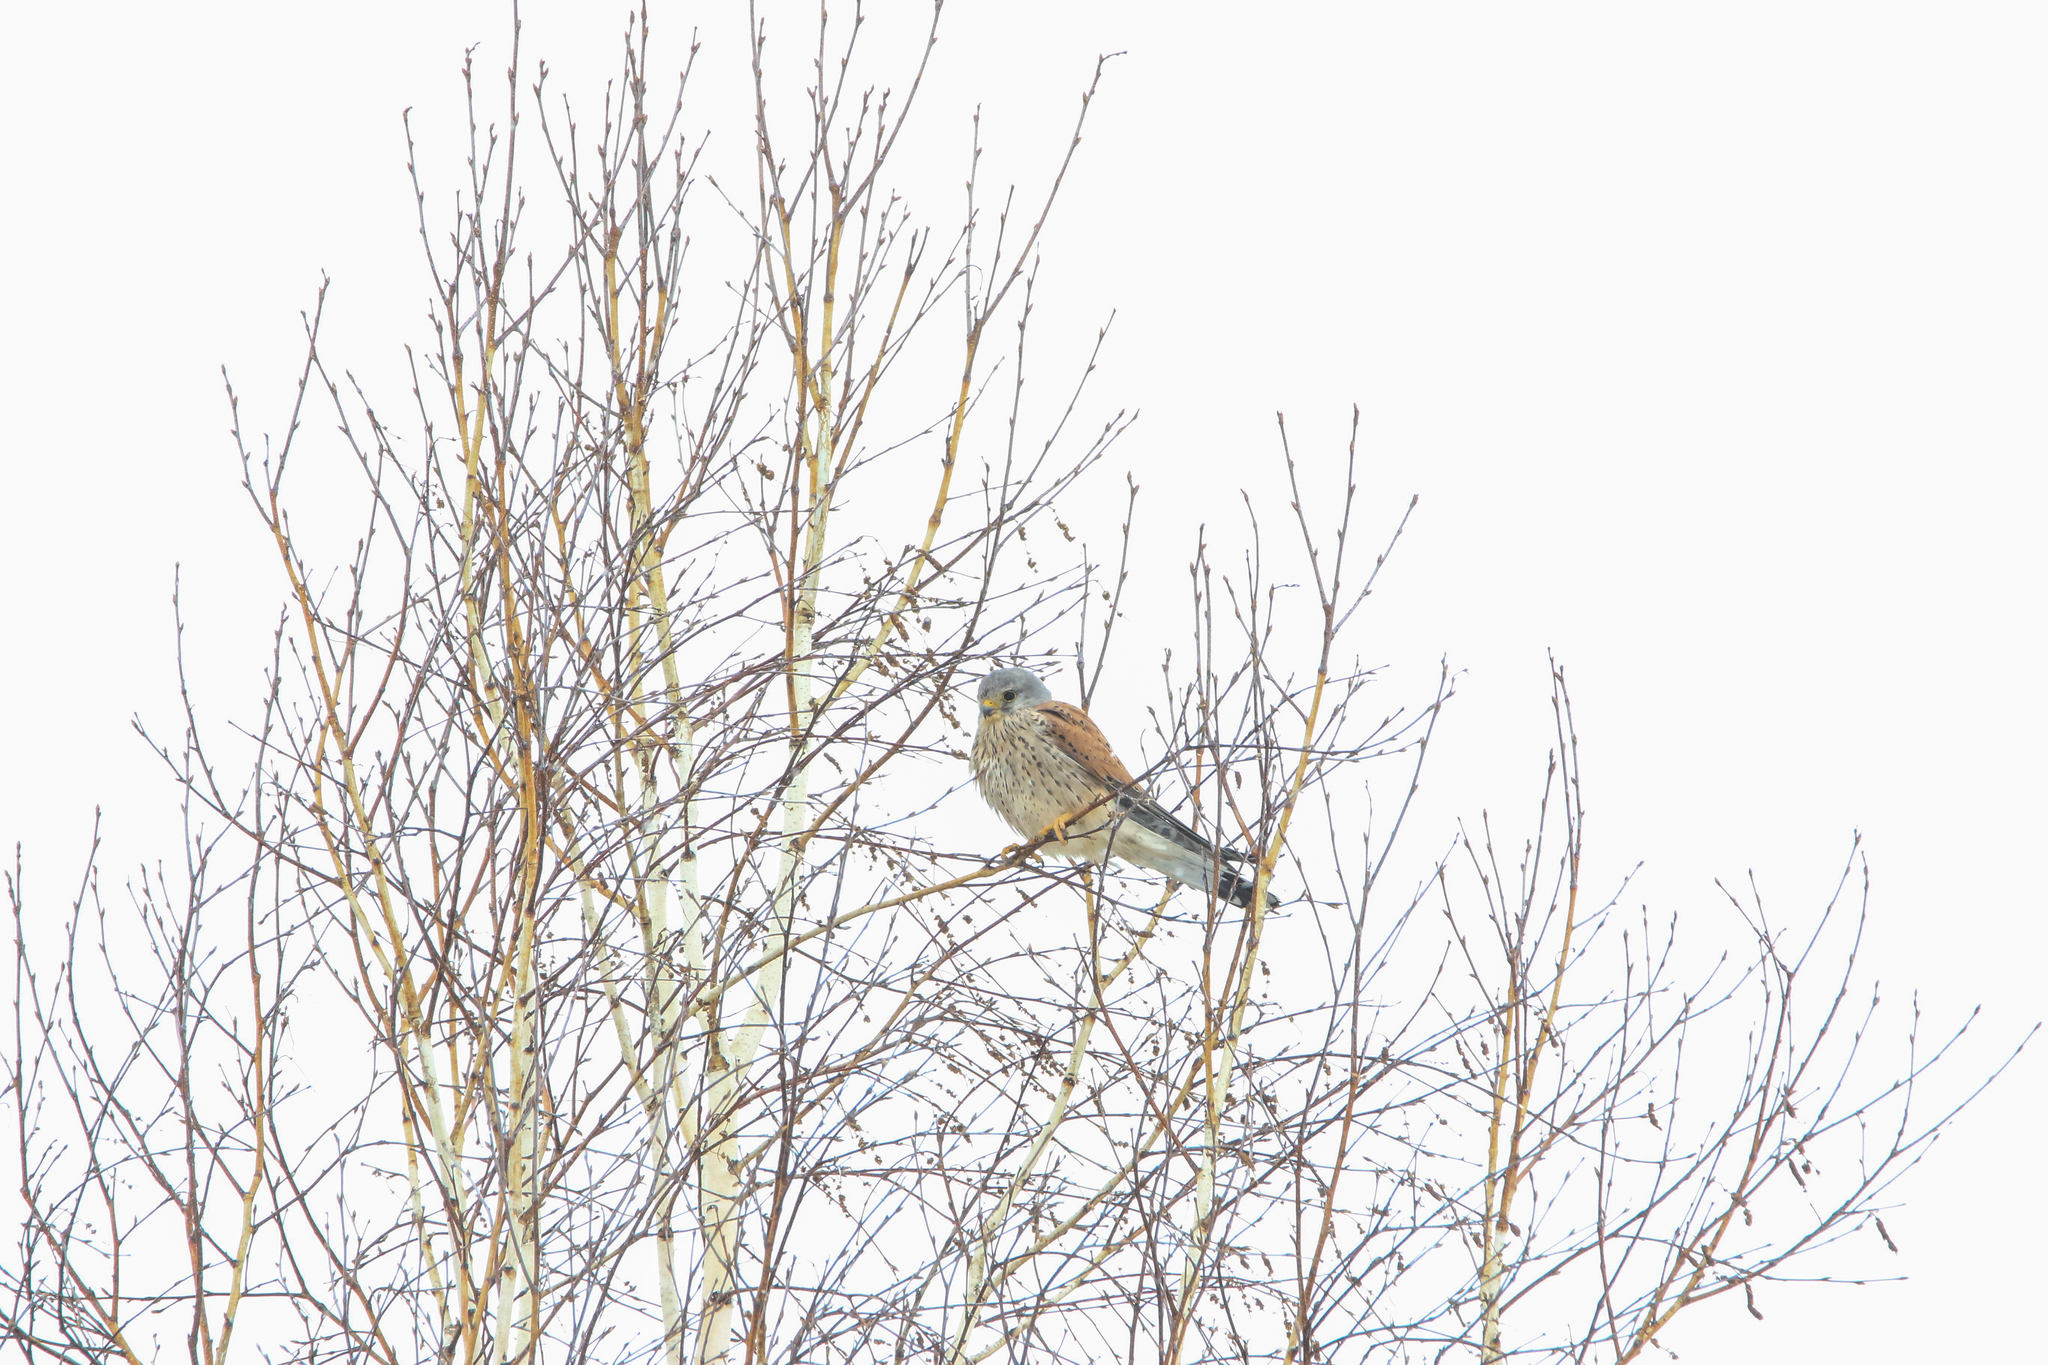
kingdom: Animalia
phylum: Chordata
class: Aves
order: Falconiformes
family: Falconidae
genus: Falco
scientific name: Falco tinnunculus
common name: Common kestrel
